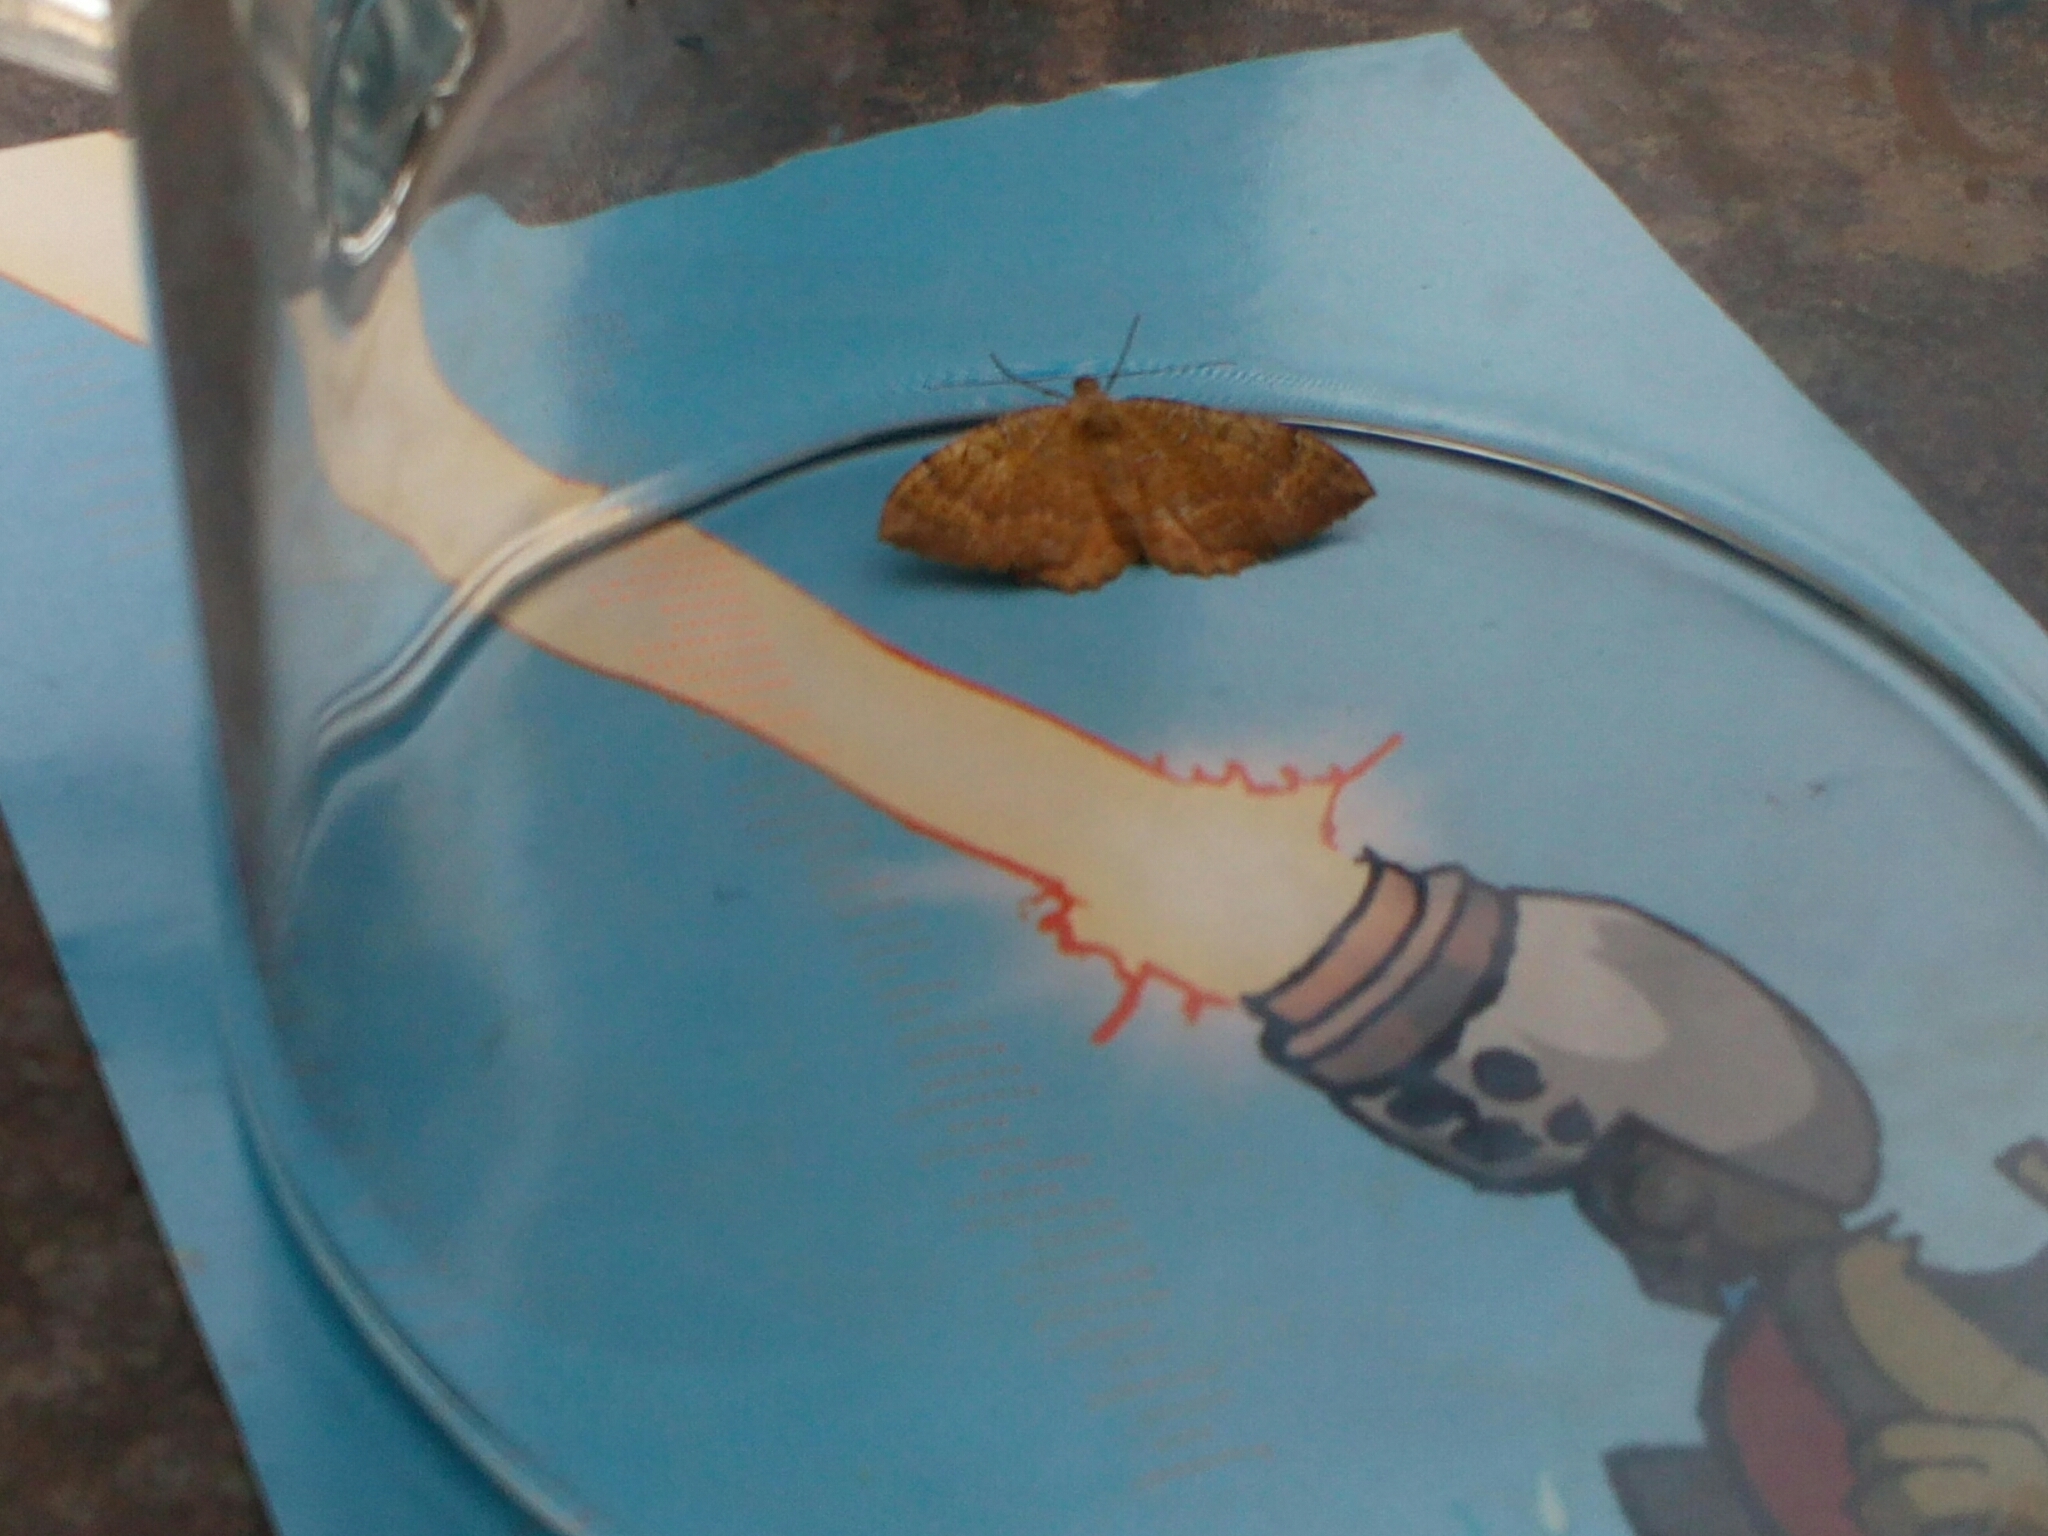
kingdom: Animalia
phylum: Arthropoda
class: Insecta
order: Lepidoptera
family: Geometridae
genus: Camptogramma
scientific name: Camptogramma bilineata
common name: Yellow shell
